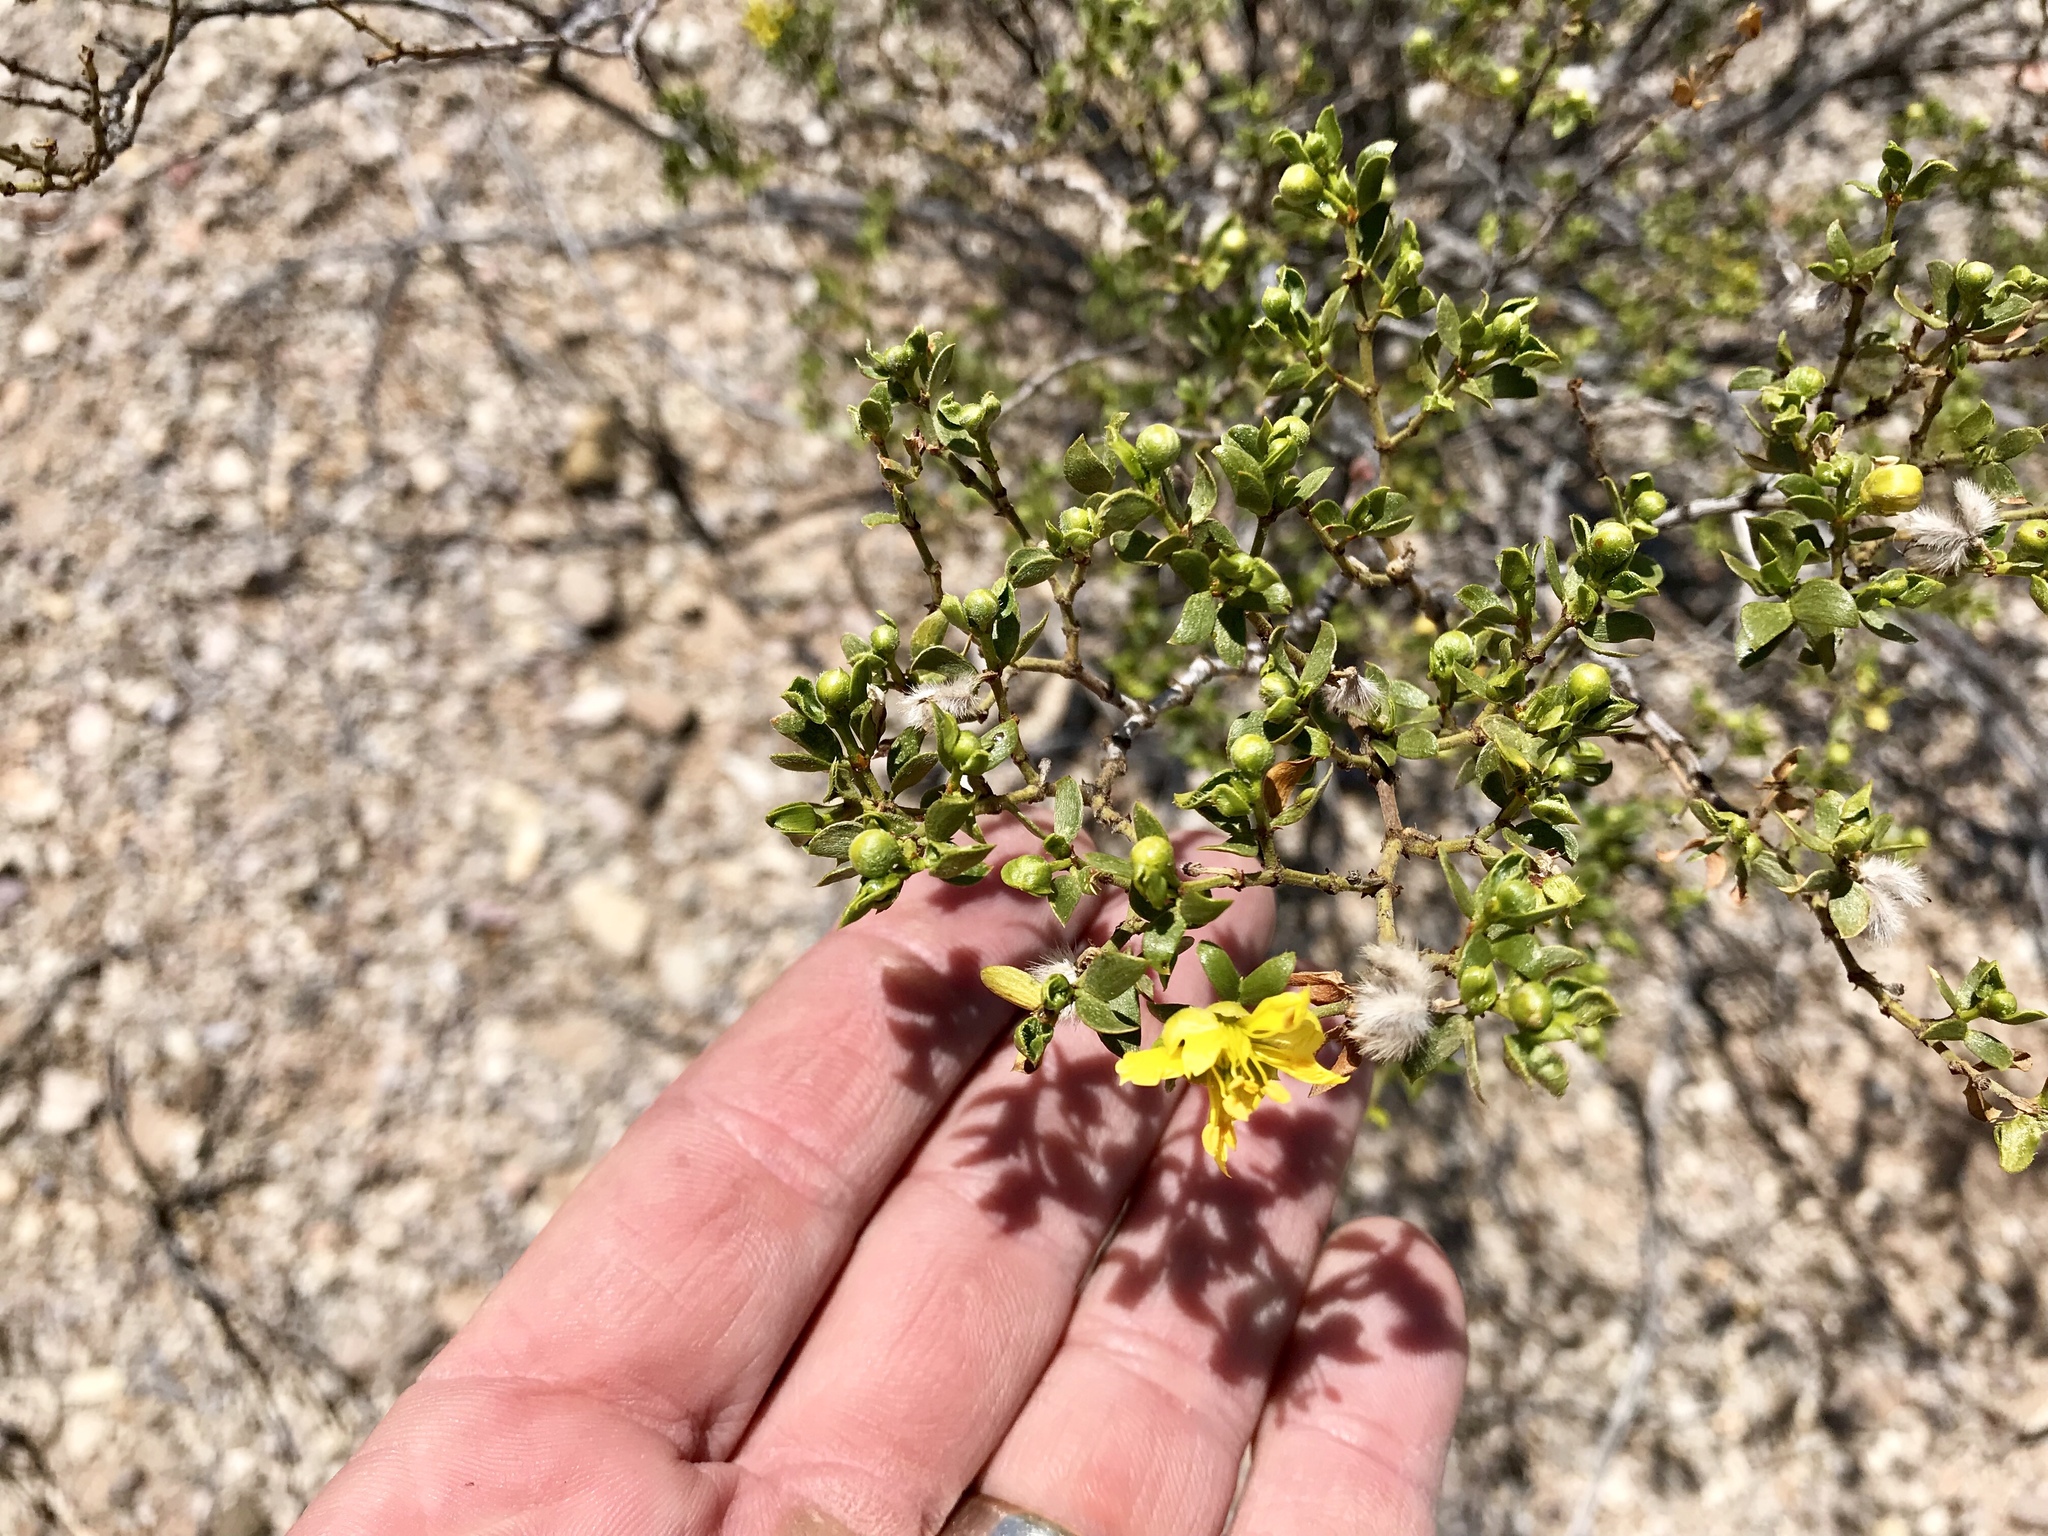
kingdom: Plantae
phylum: Tracheophyta
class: Magnoliopsida
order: Zygophyllales
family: Zygophyllaceae
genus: Larrea
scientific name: Larrea tridentata
